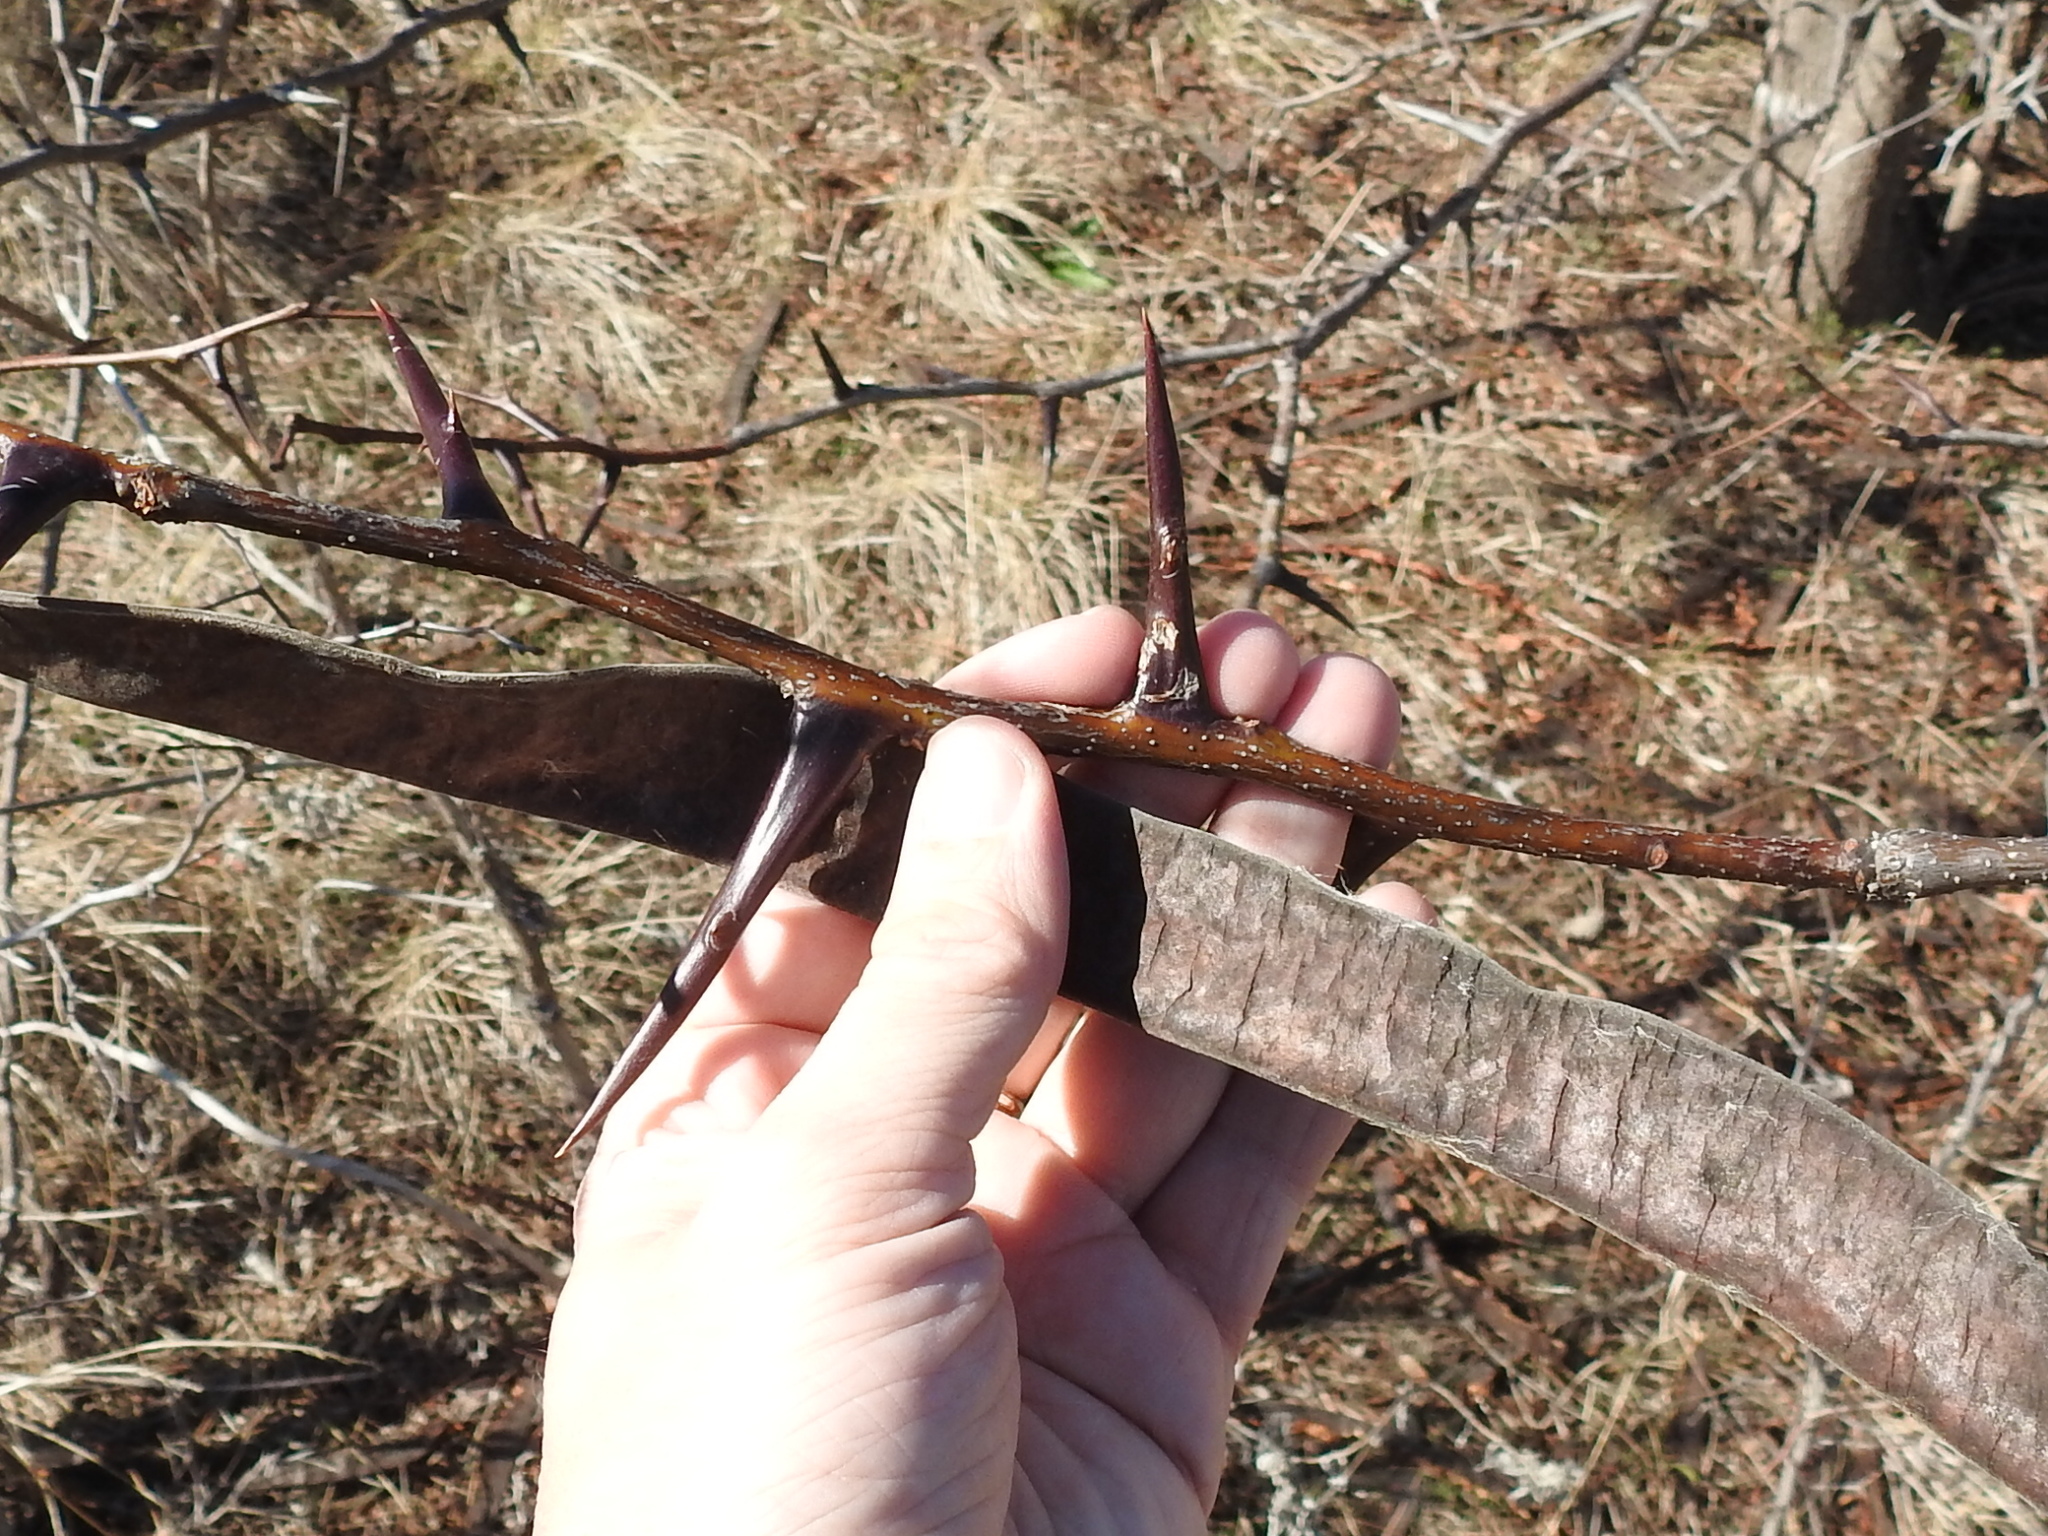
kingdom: Plantae
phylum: Tracheophyta
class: Magnoliopsida
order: Fabales
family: Fabaceae
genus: Gleditsia
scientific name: Gleditsia triacanthos
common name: Common honeylocust
